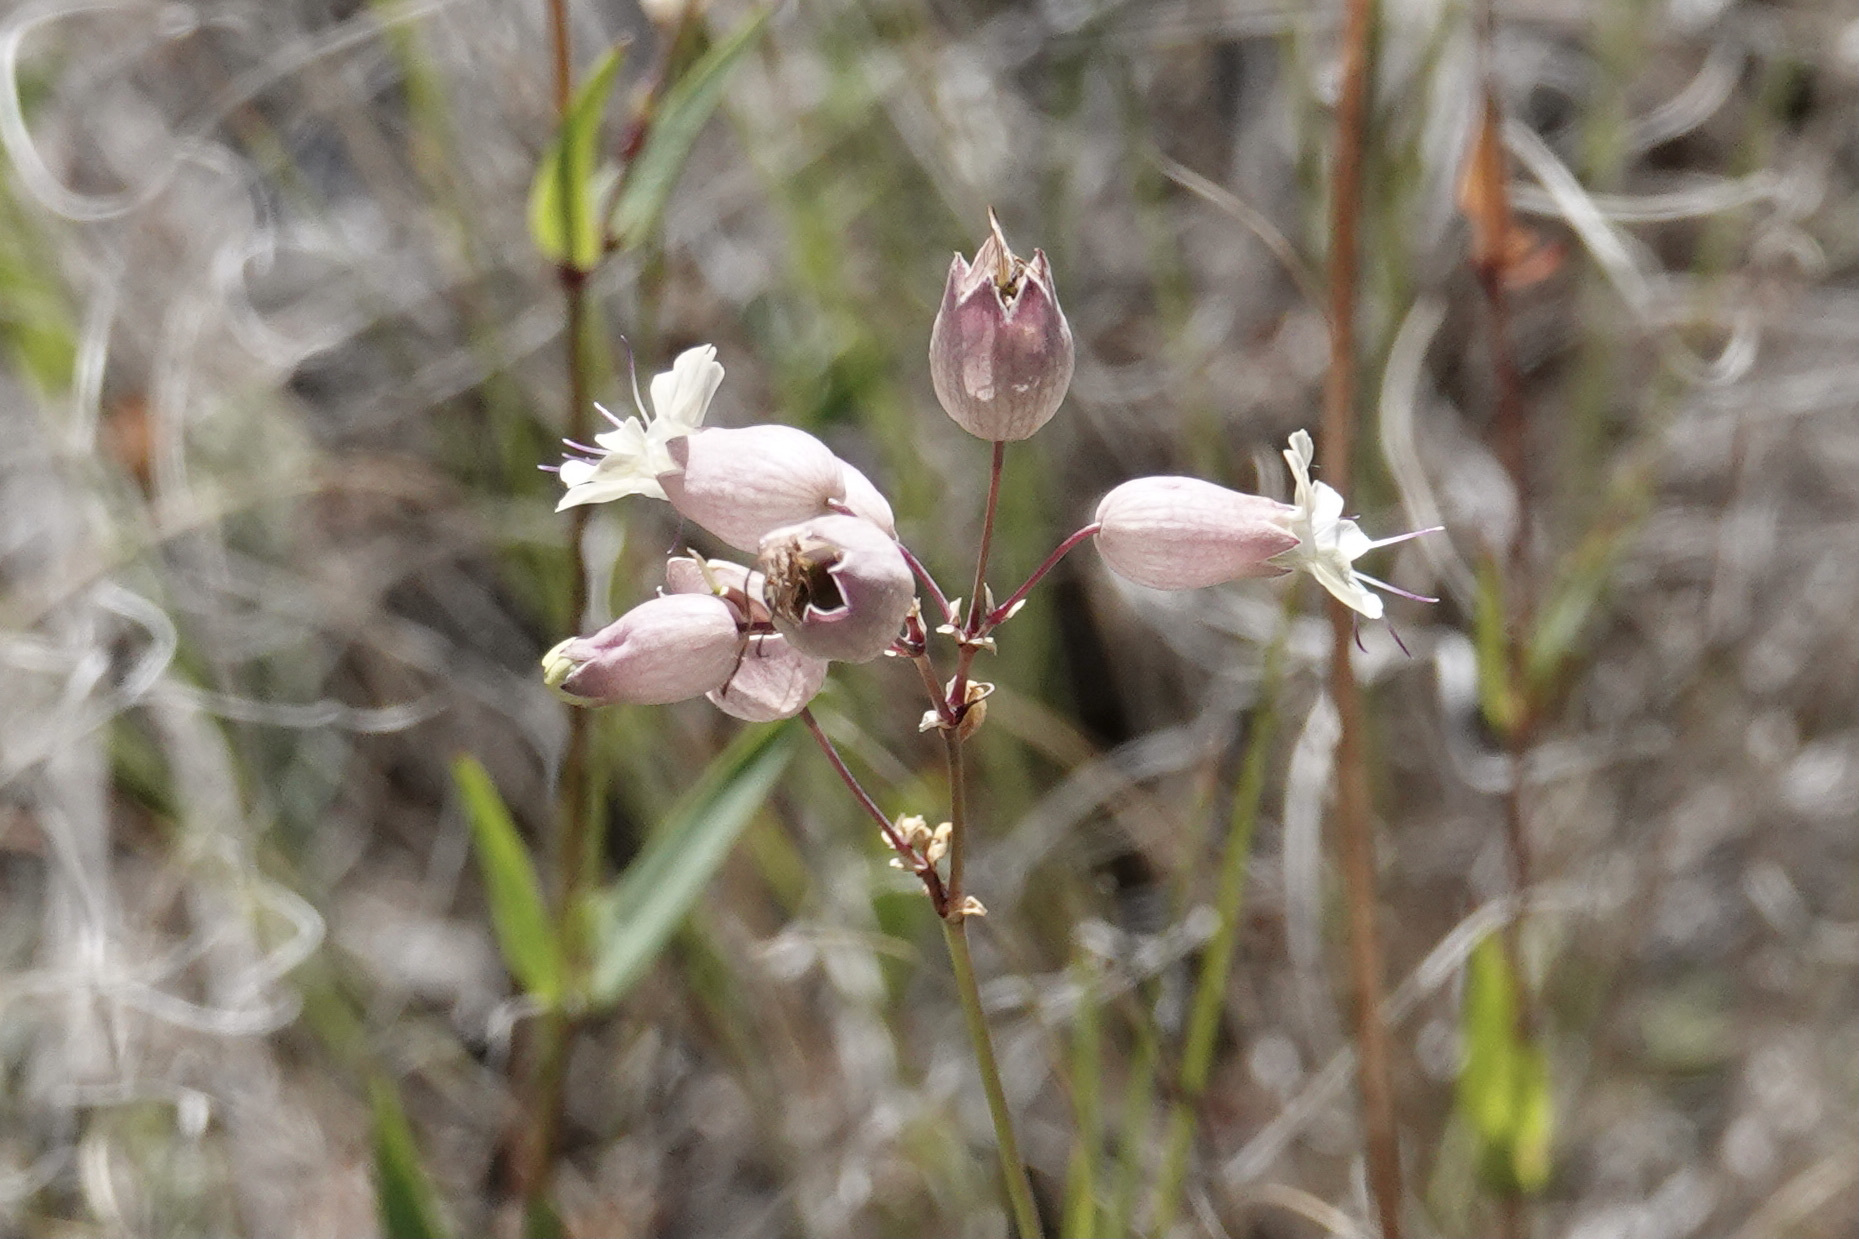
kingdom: Plantae
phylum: Tracheophyta
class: Magnoliopsida
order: Caryophyllales
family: Caryophyllaceae
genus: Silene
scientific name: Silene vulgaris
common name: Bladder campion
